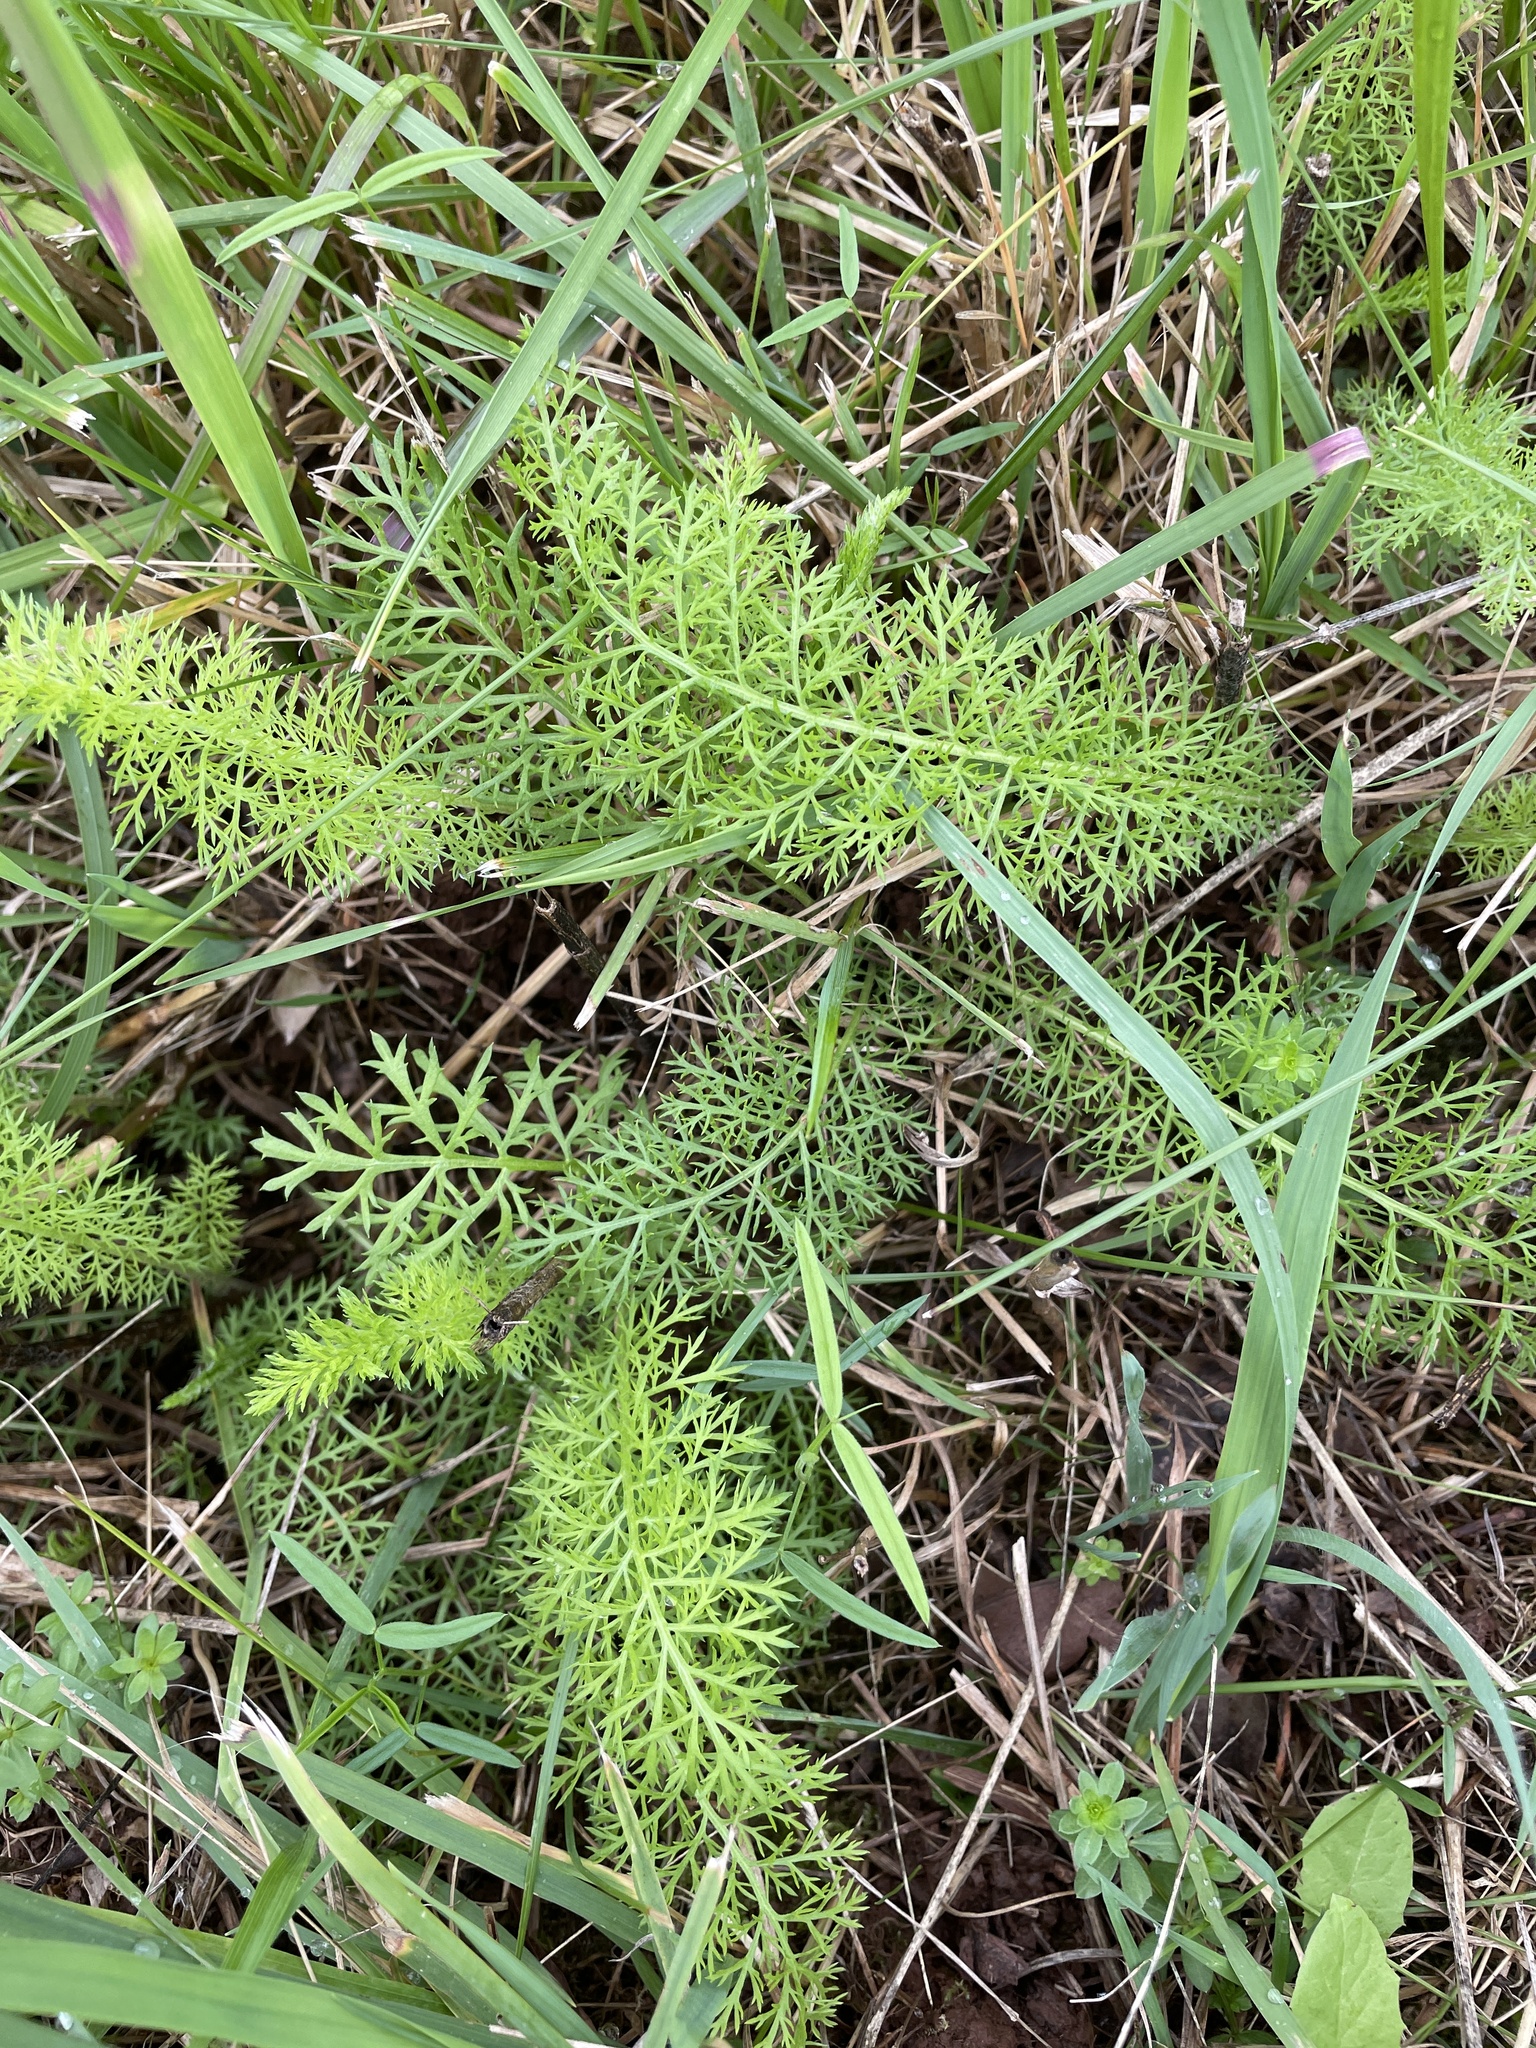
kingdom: Plantae
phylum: Tracheophyta
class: Magnoliopsida
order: Asterales
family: Asteraceae
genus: Achillea
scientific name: Achillea millefolium
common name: Yarrow
